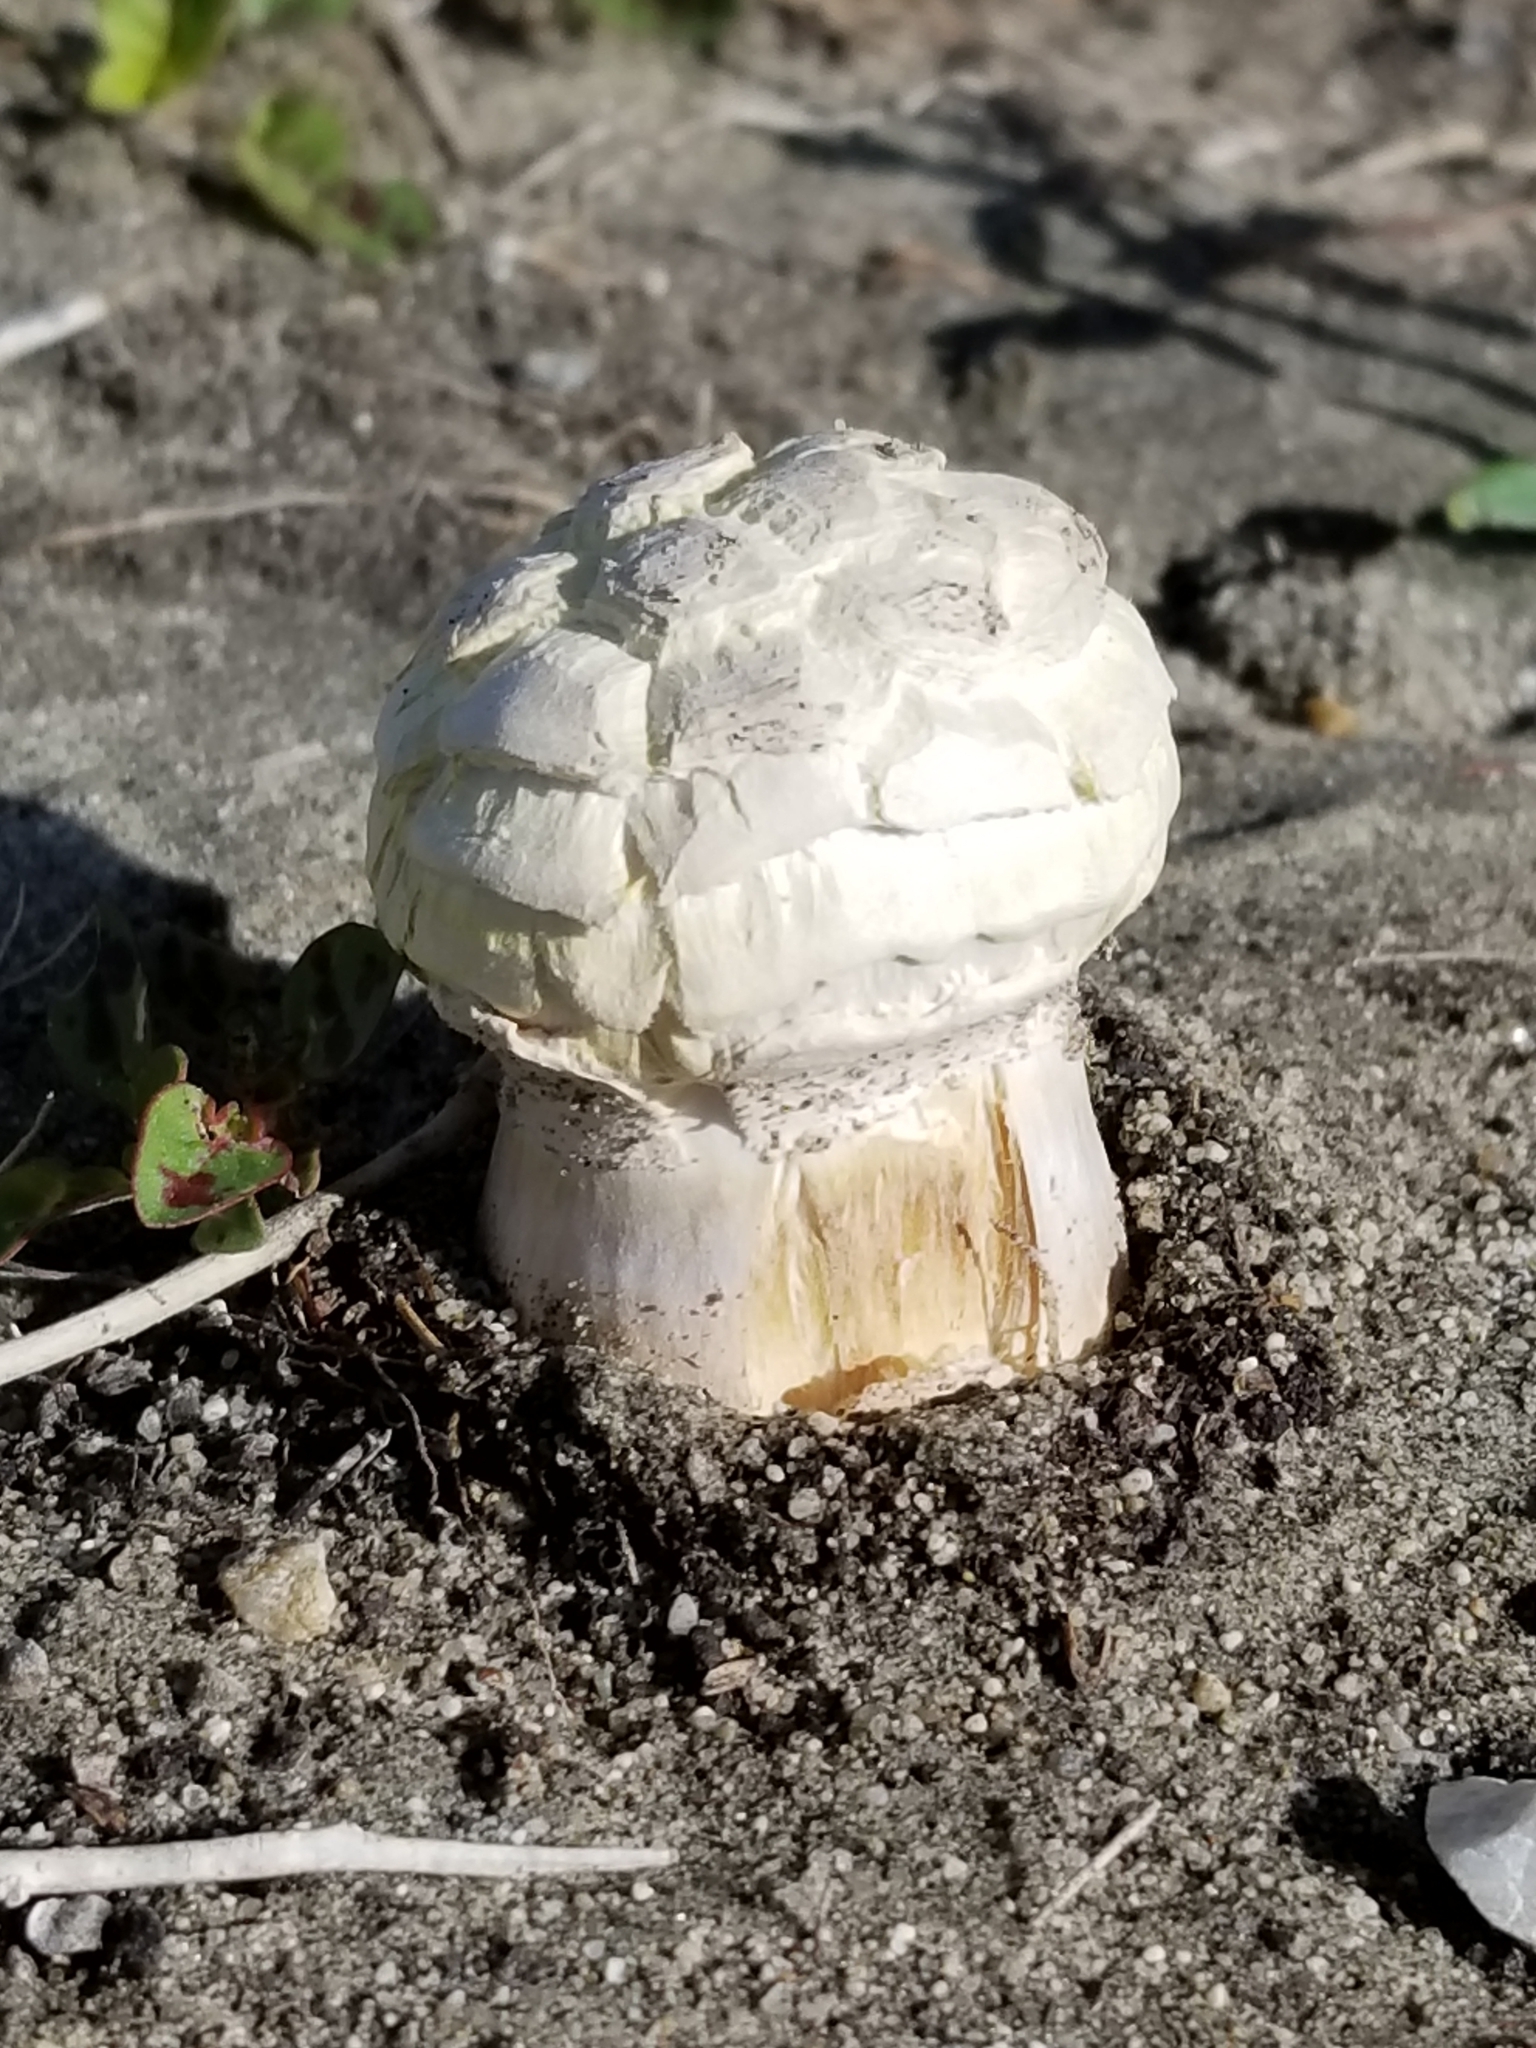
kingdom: Fungi
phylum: Basidiomycota
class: Agaricomycetes
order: Agaricales
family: Agaricaceae
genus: Podaxis
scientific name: Podaxis pistillaris
